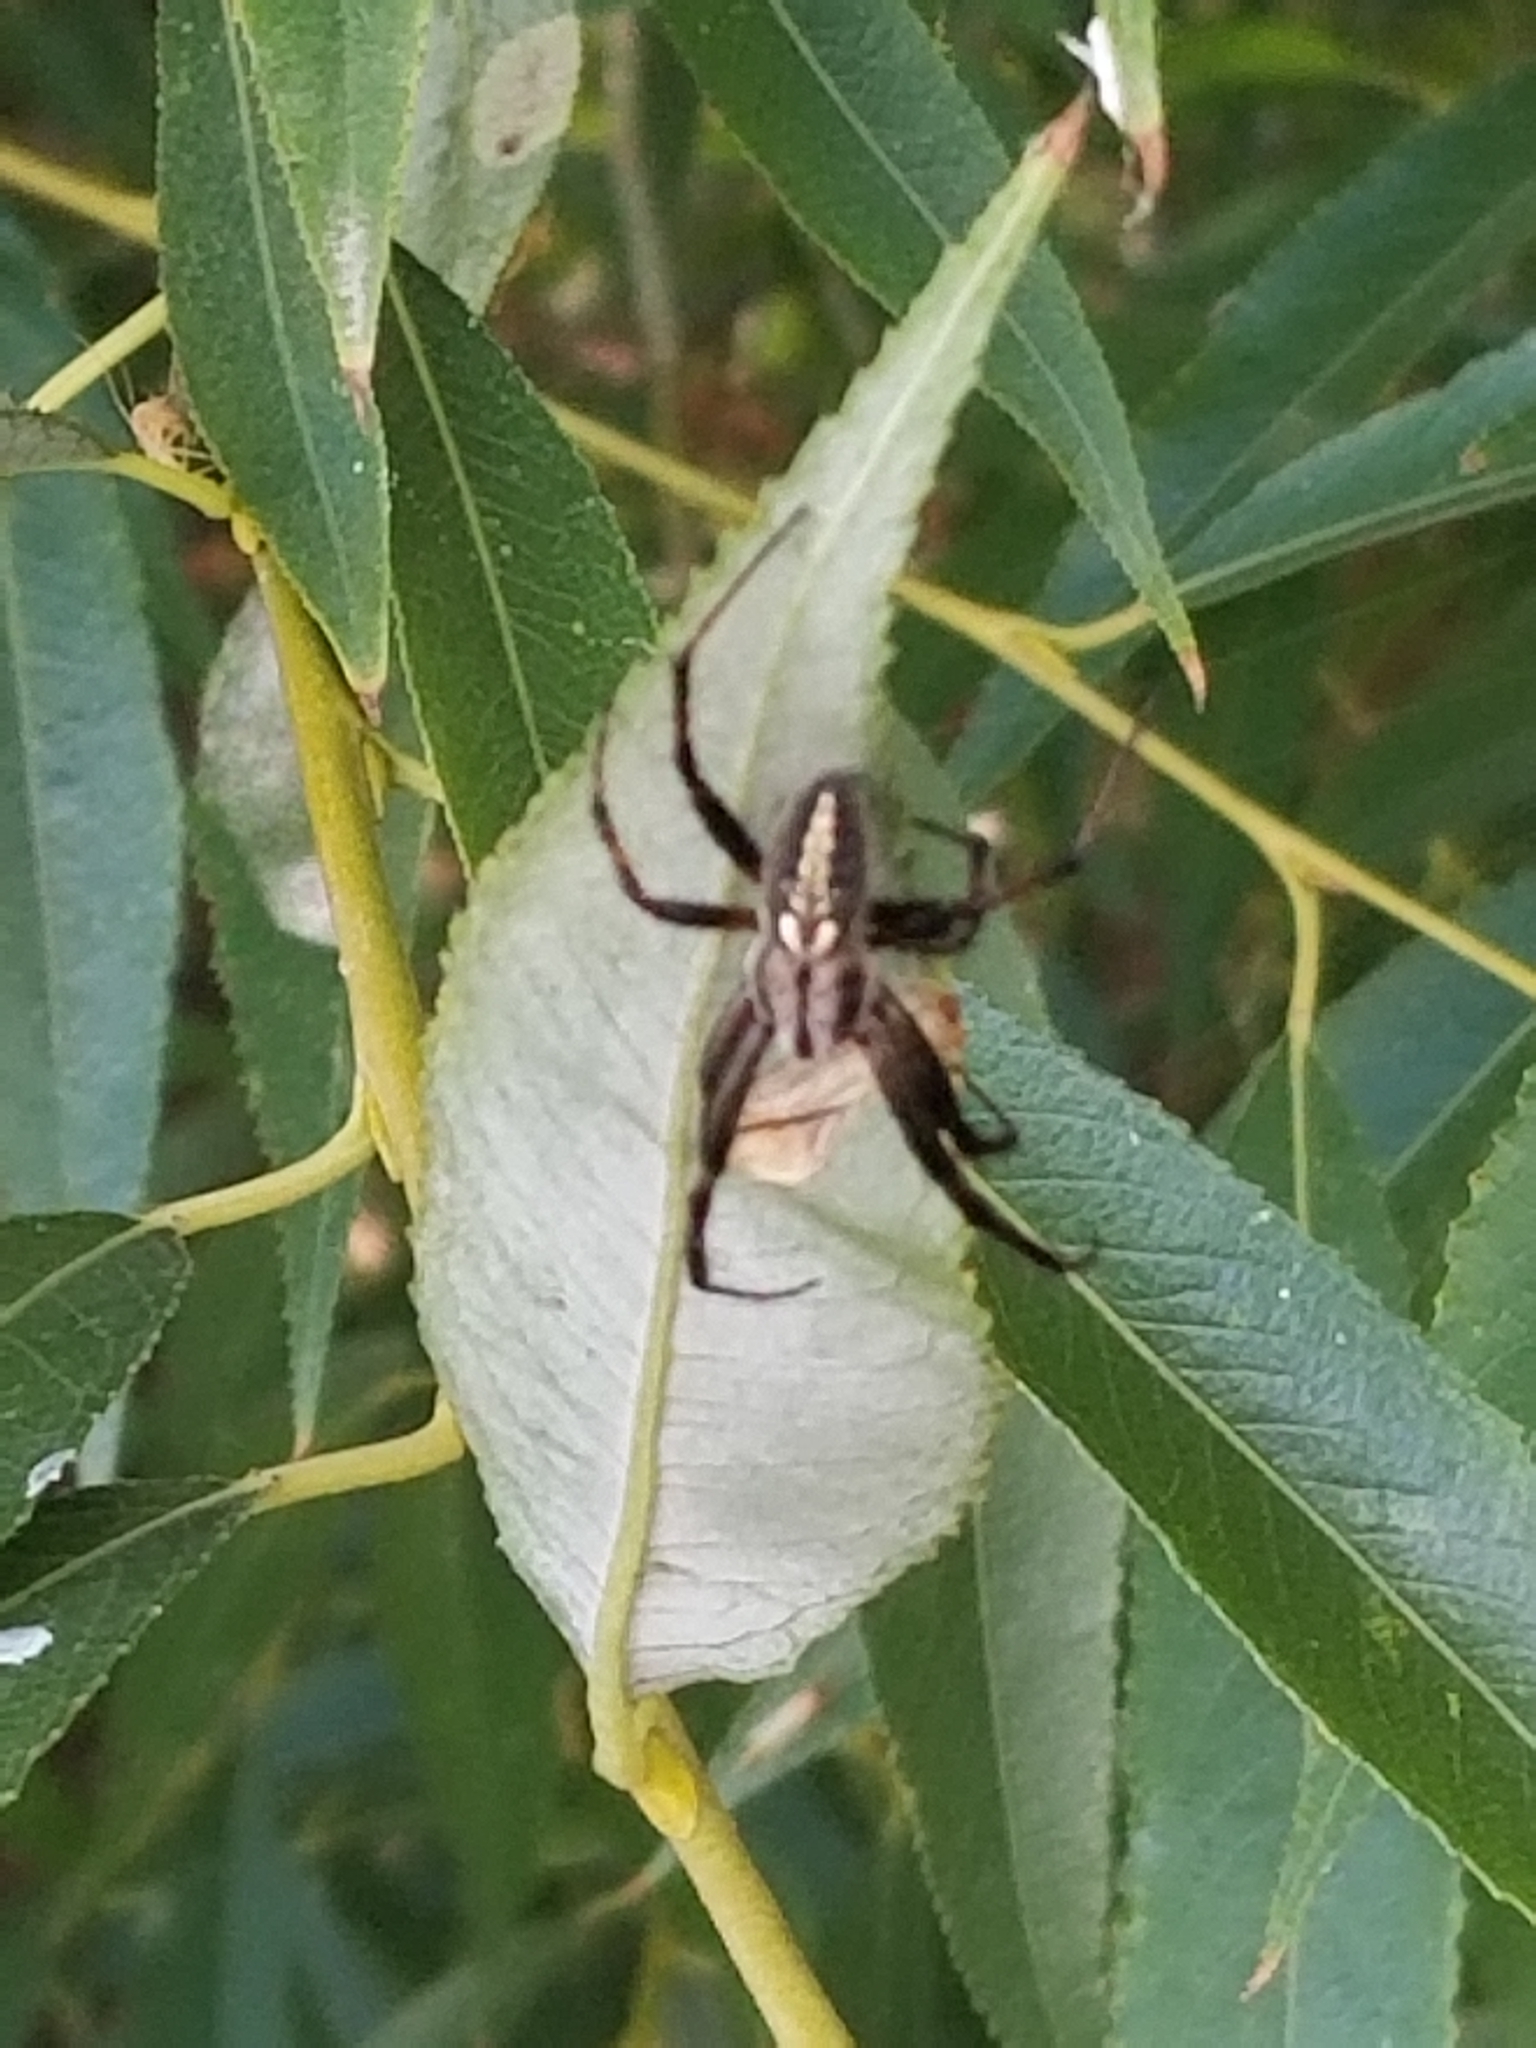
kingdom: Animalia
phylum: Arthropoda
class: Arachnida
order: Araneae
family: Araneidae
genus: Neoscona
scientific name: Neoscona oaxacensis
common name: Orb weavers
